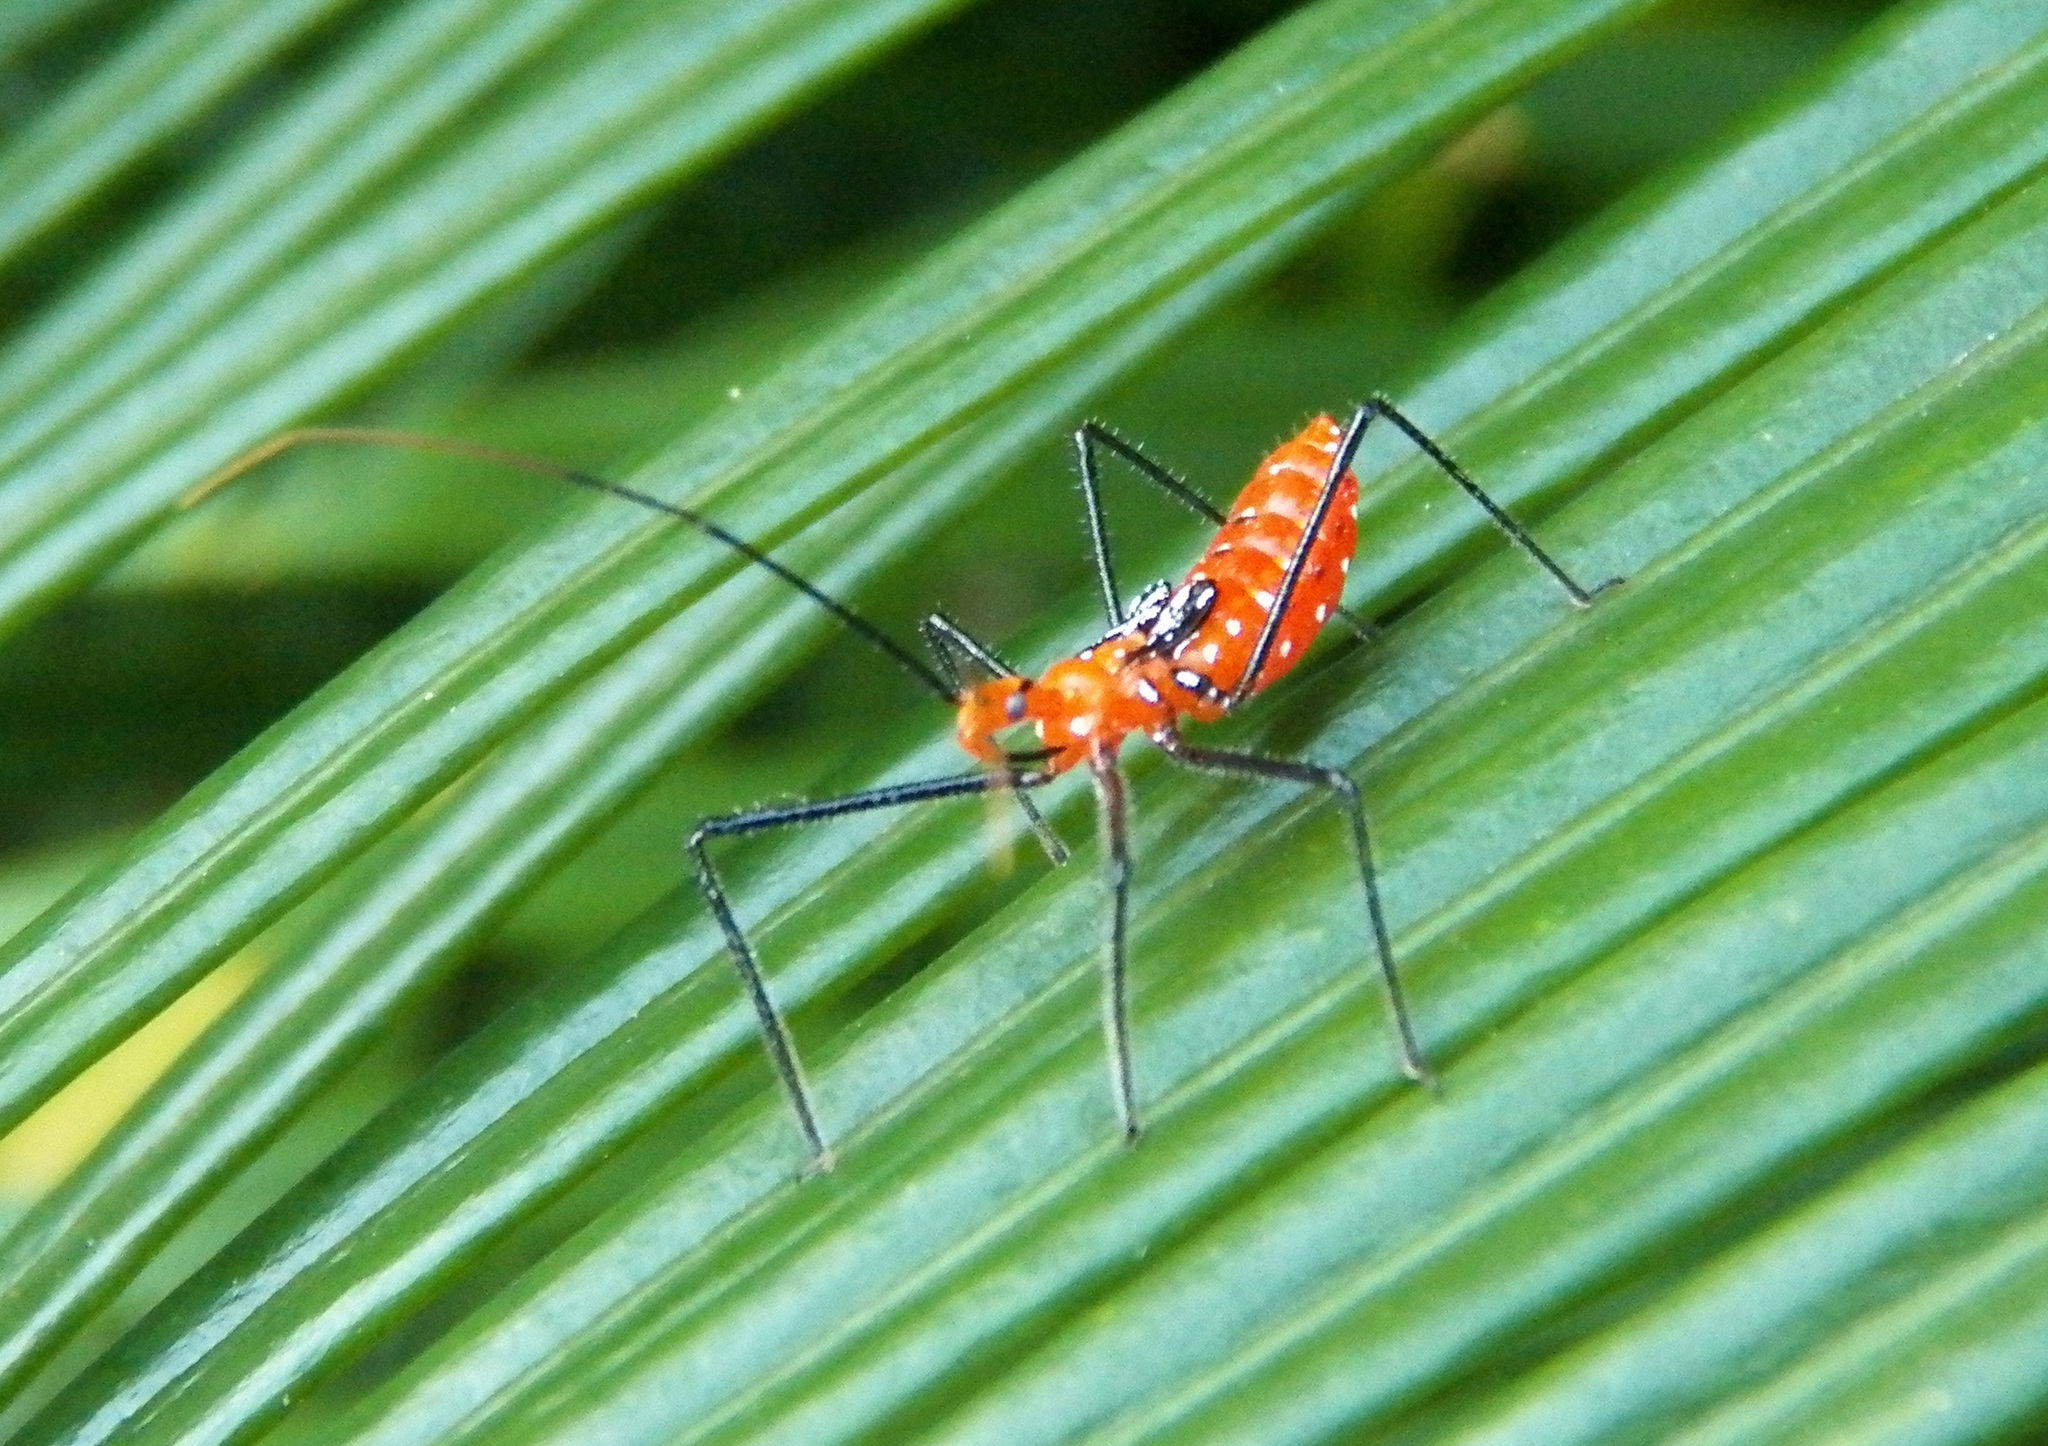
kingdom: Animalia
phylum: Arthropoda
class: Insecta
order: Hemiptera
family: Reduviidae
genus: Zelus
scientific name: Zelus longipes
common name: Milkweed assassin bug
